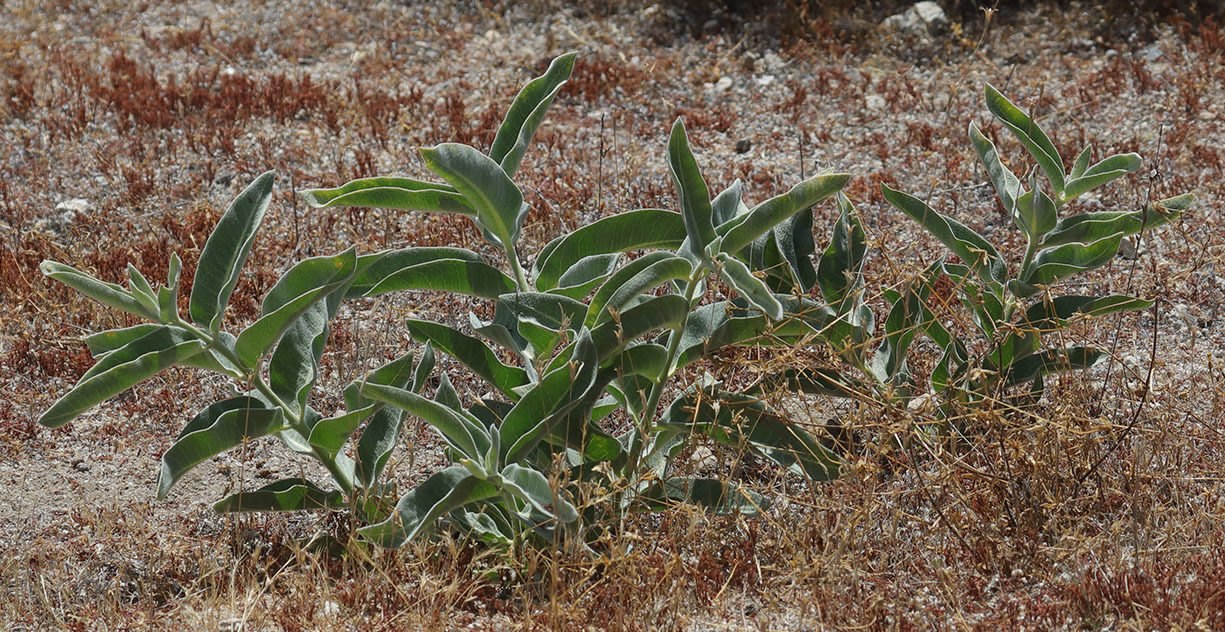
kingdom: Plantae
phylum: Tracheophyta
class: Magnoliopsida
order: Gentianales
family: Apocynaceae
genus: Asclepias
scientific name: Asclepias eriocarpa
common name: Indian milkweed
